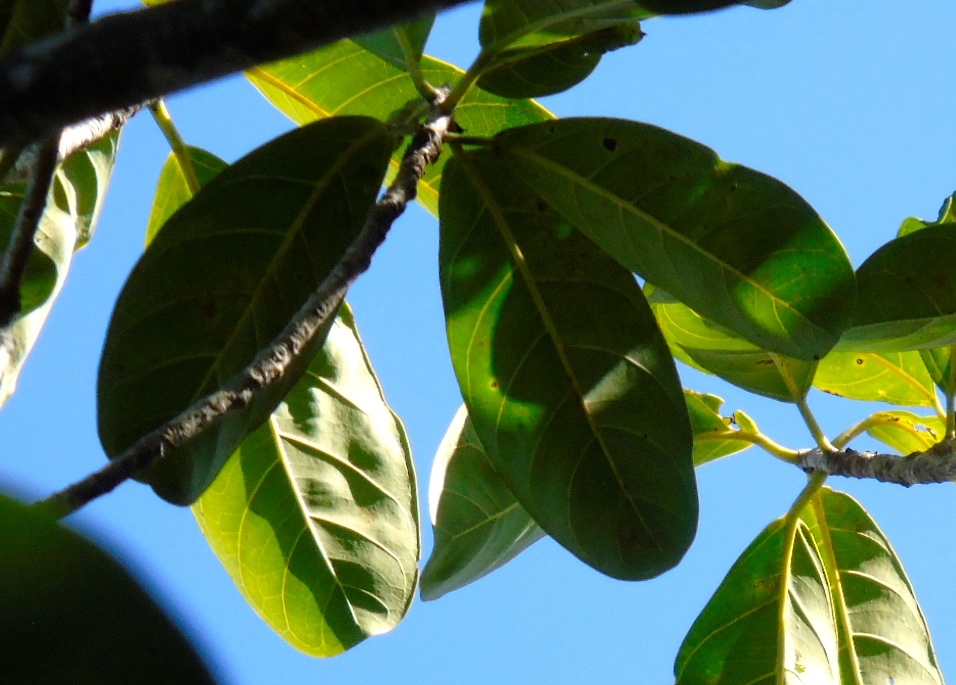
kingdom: Plantae
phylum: Tracheophyta
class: Magnoliopsida
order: Rosales
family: Moraceae
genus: Ficus
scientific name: Ficus obtusifolia
